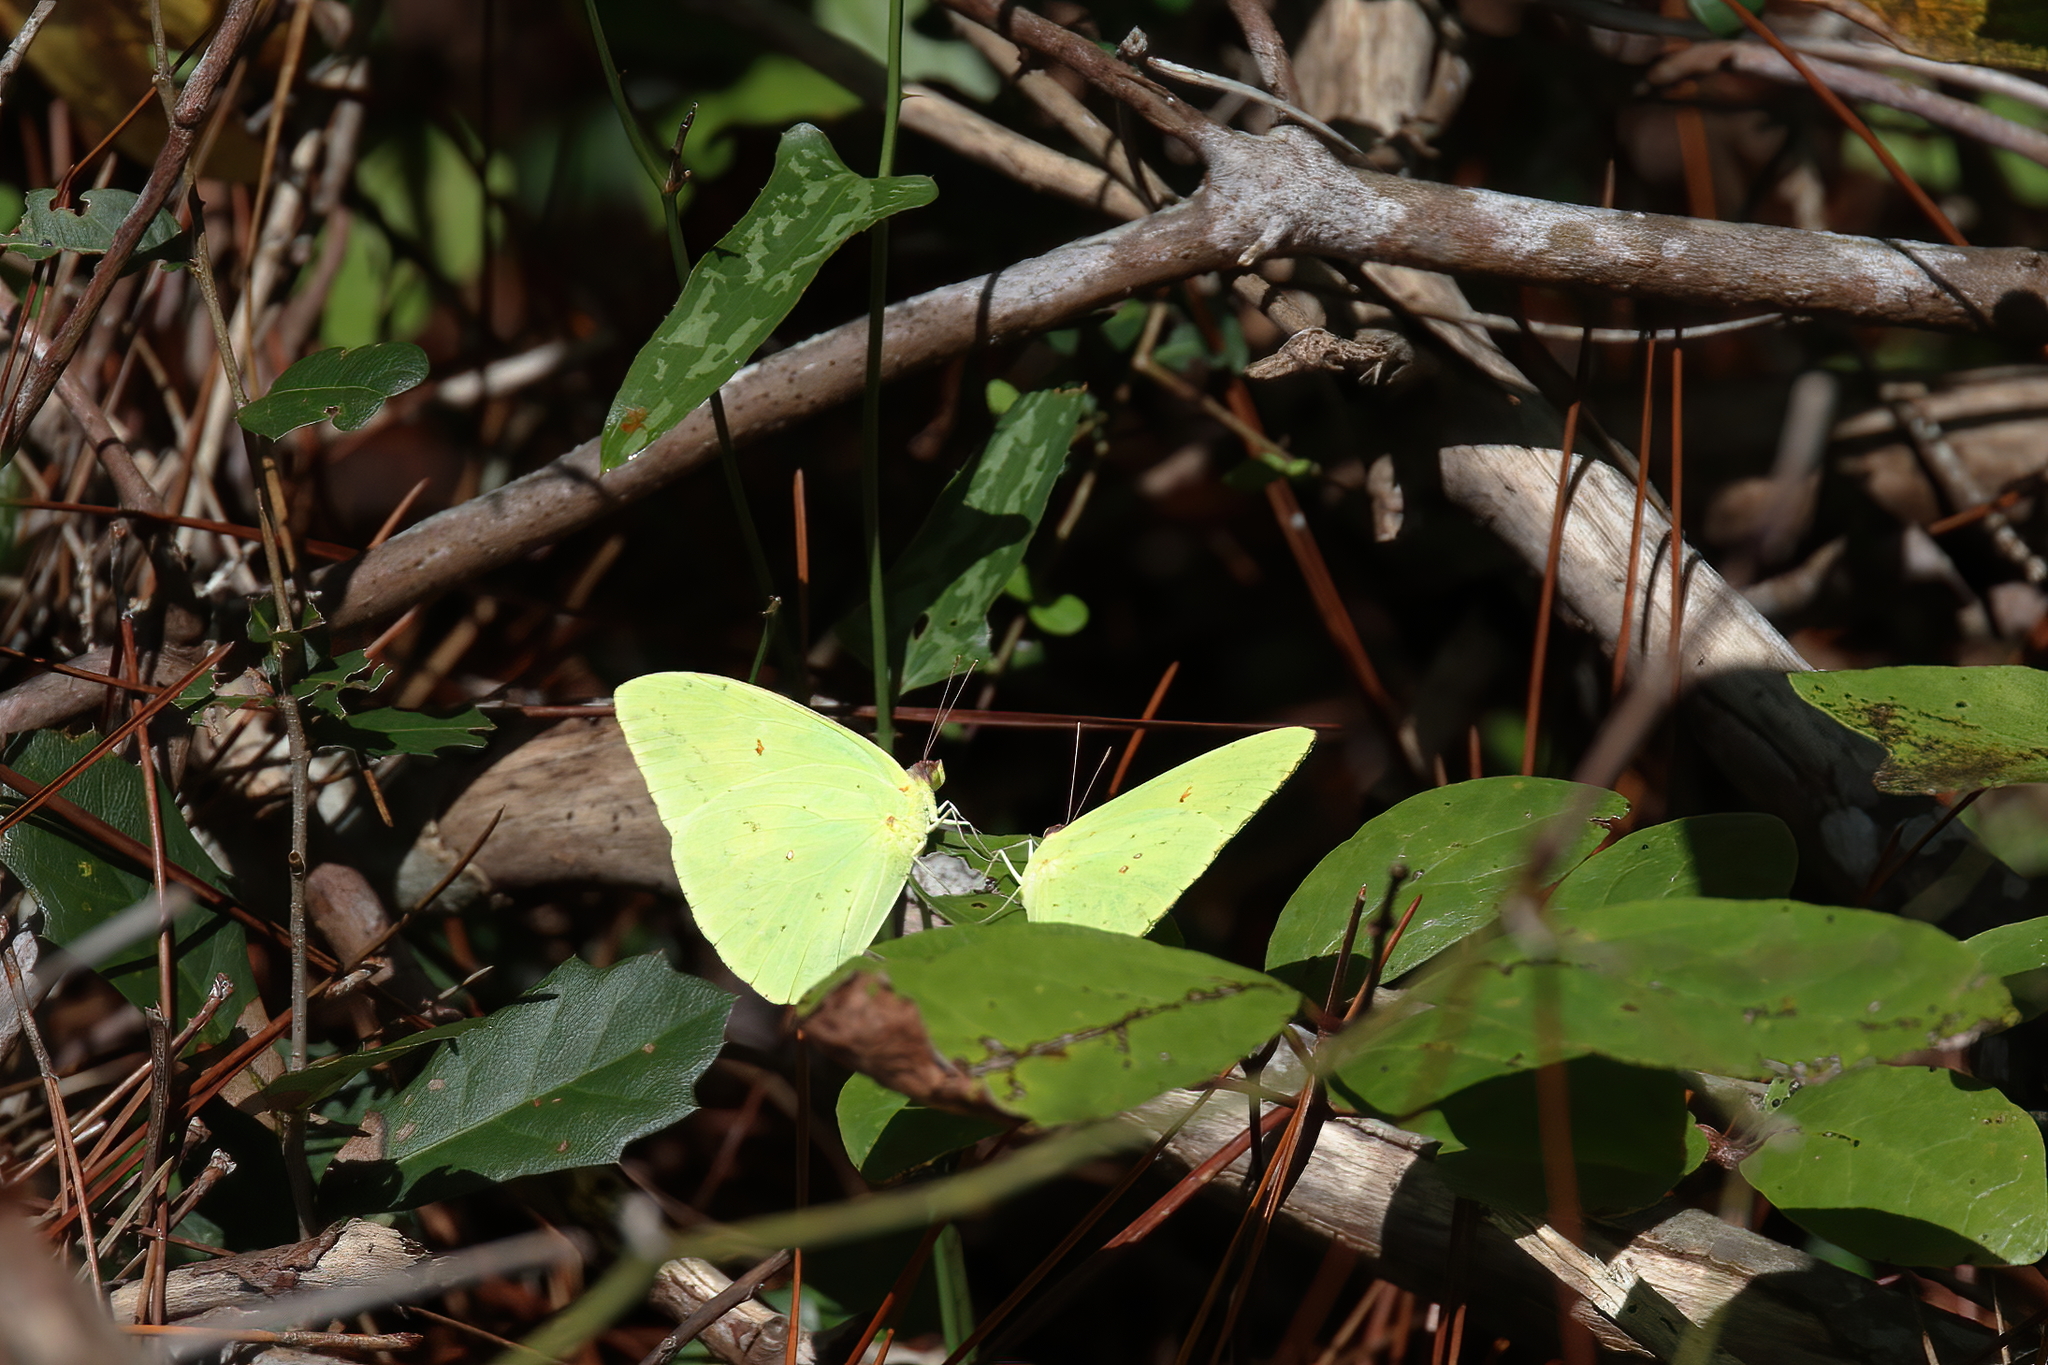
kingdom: Animalia
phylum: Arthropoda
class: Insecta
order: Lepidoptera
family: Pieridae
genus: Phoebis
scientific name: Phoebis sennae
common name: Cloudless sulphur
